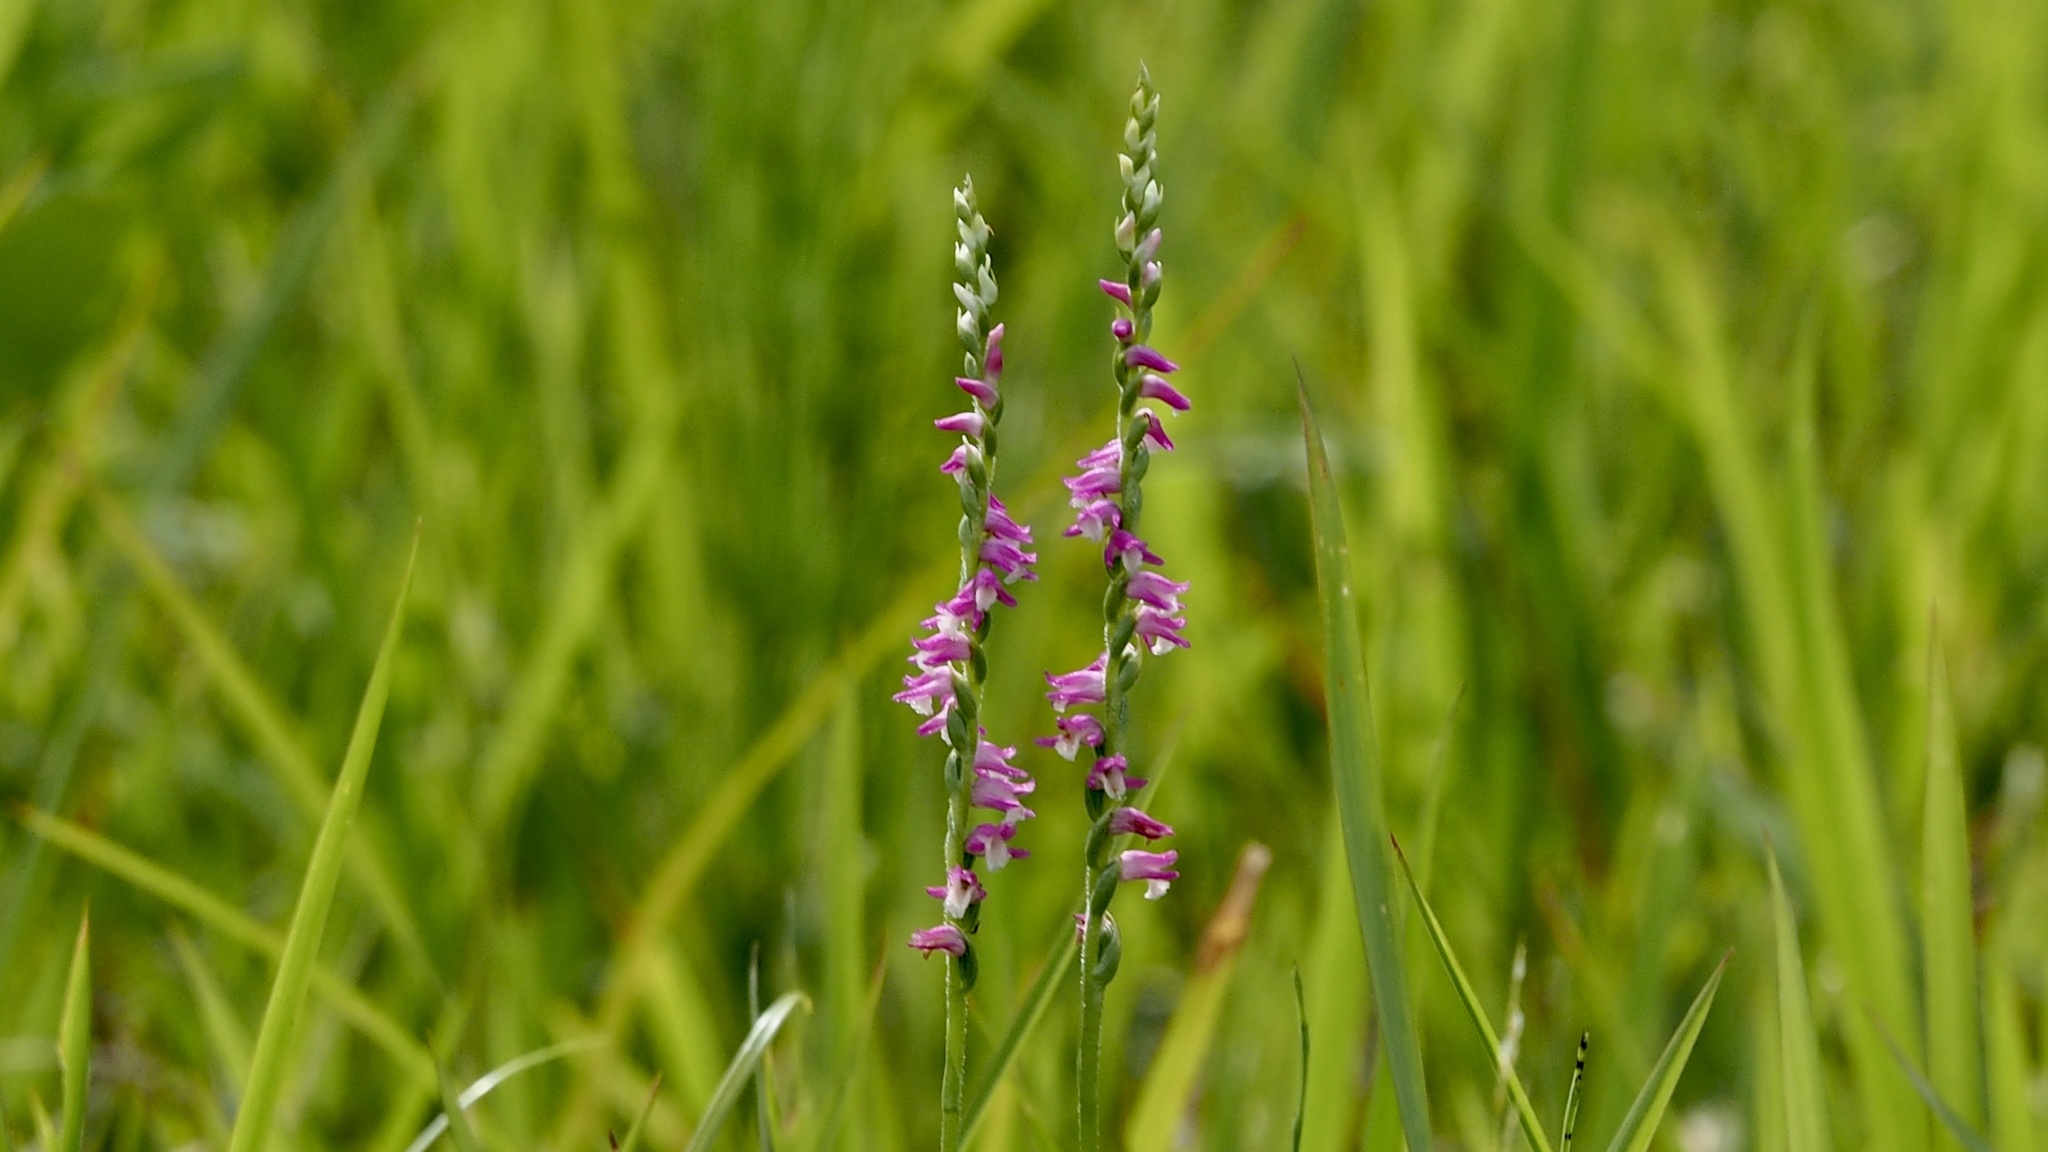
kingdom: Plantae
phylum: Tracheophyta
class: Liliopsida
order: Asparagales
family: Orchidaceae
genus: Spiranthes
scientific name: Spiranthes australis
